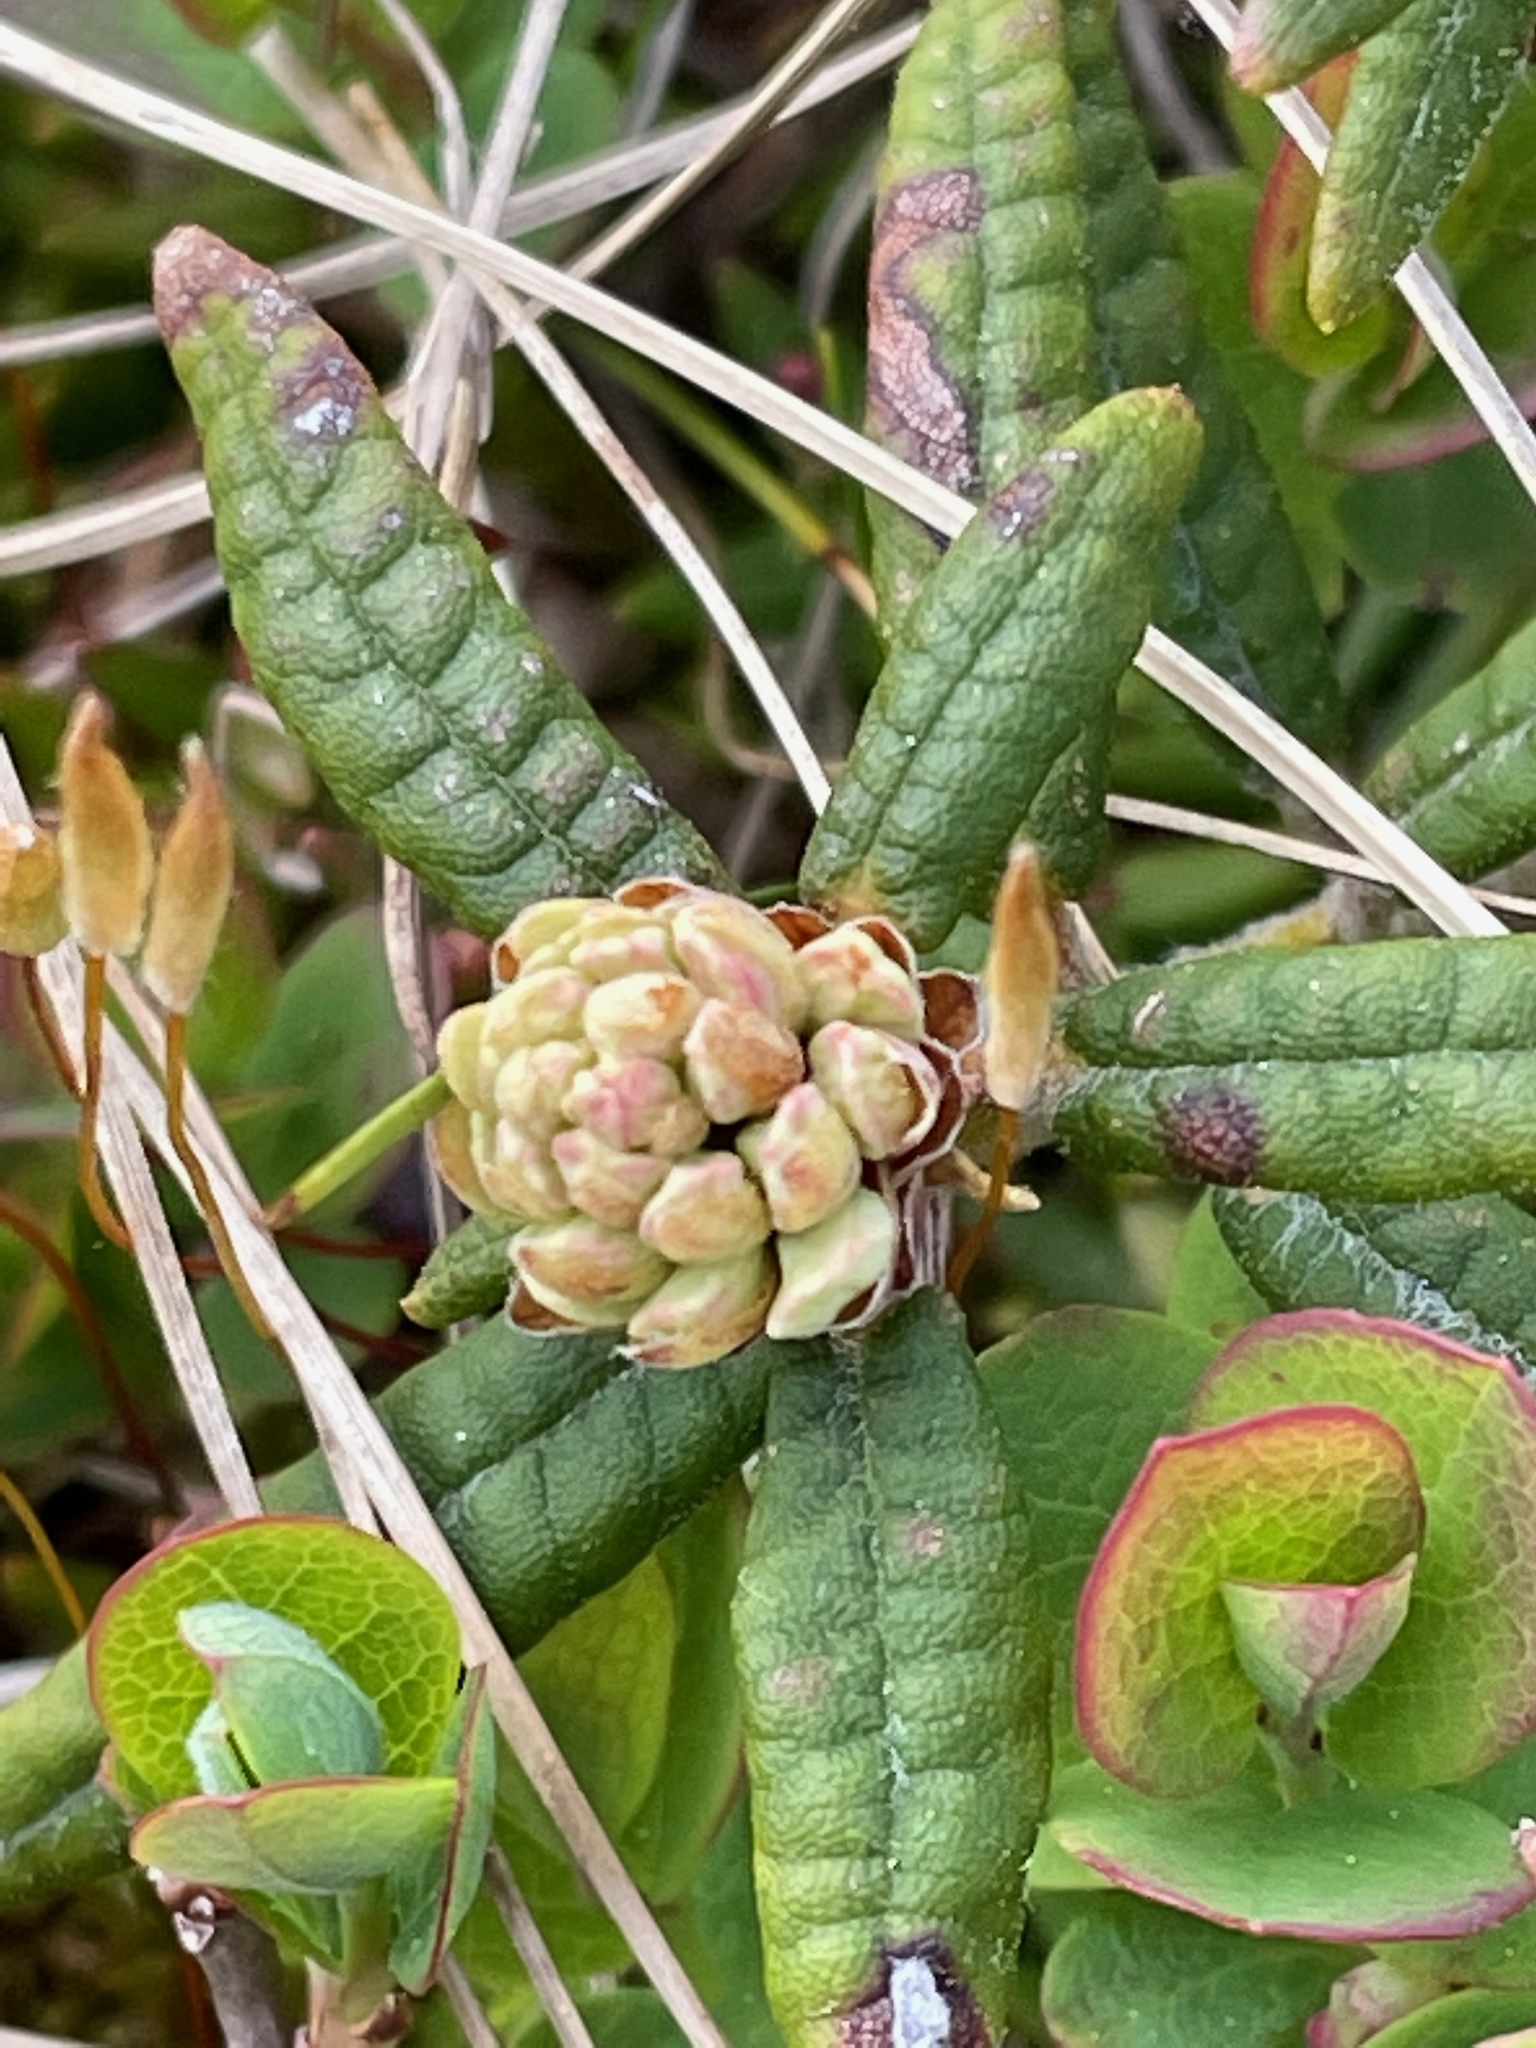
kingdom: Plantae
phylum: Tracheophyta
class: Magnoliopsida
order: Ericales
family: Ericaceae
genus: Rhododendron
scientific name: Rhododendron groenlandicum
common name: Bog labrador tea
